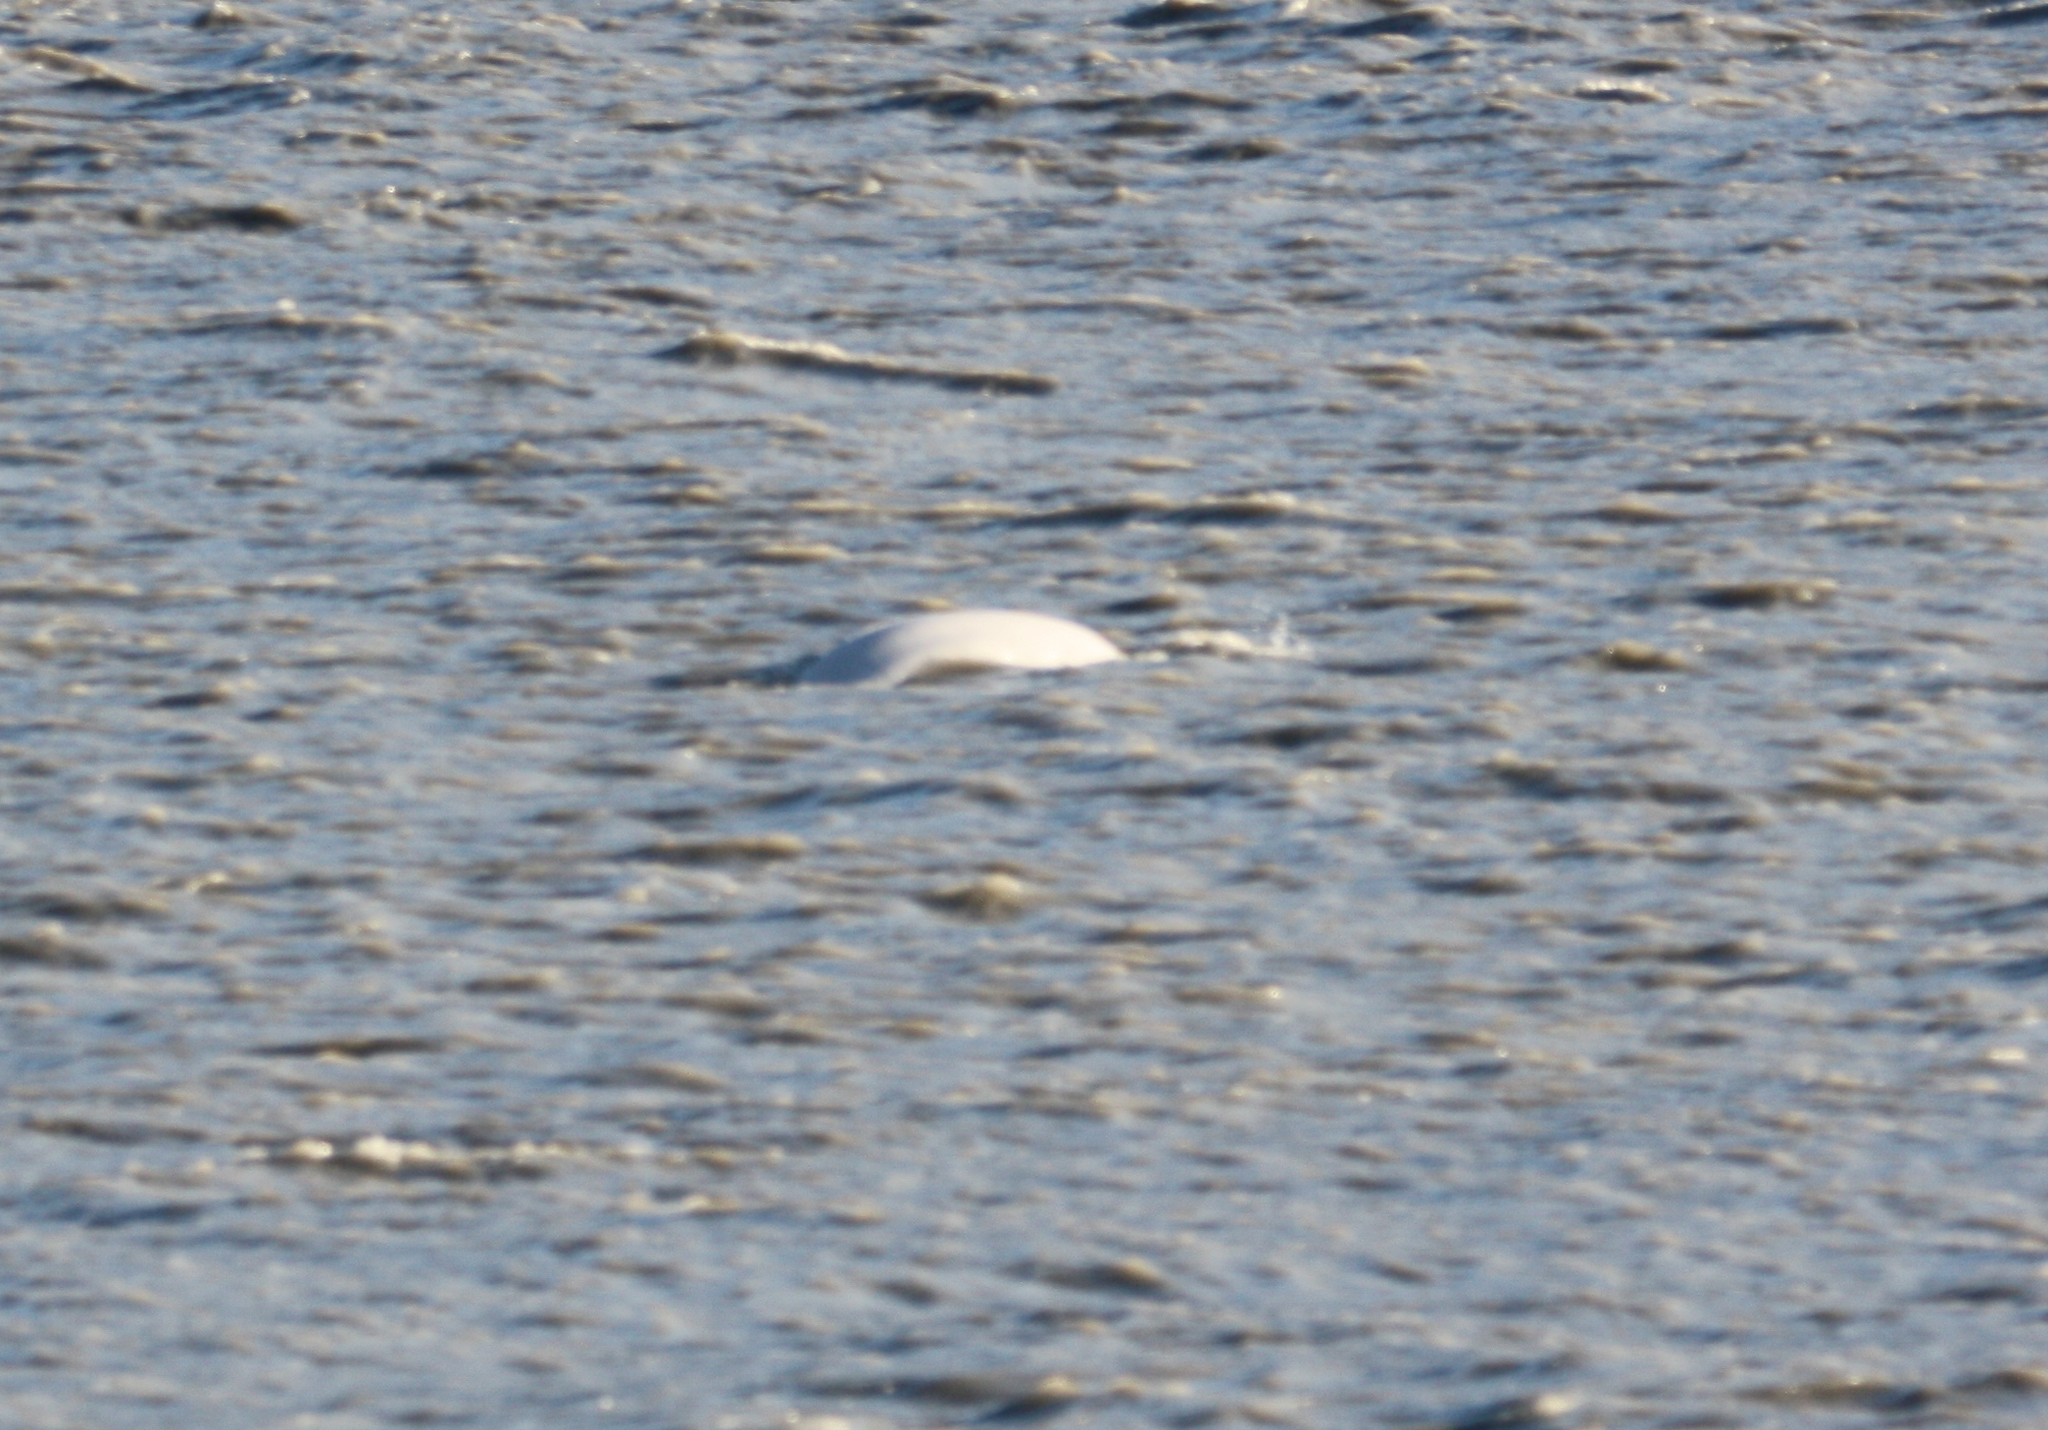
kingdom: Animalia
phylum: Chordata
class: Mammalia
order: Cetacea
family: Monodontidae
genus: Delphinapterus
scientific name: Delphinapterus leucas
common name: Beluga
